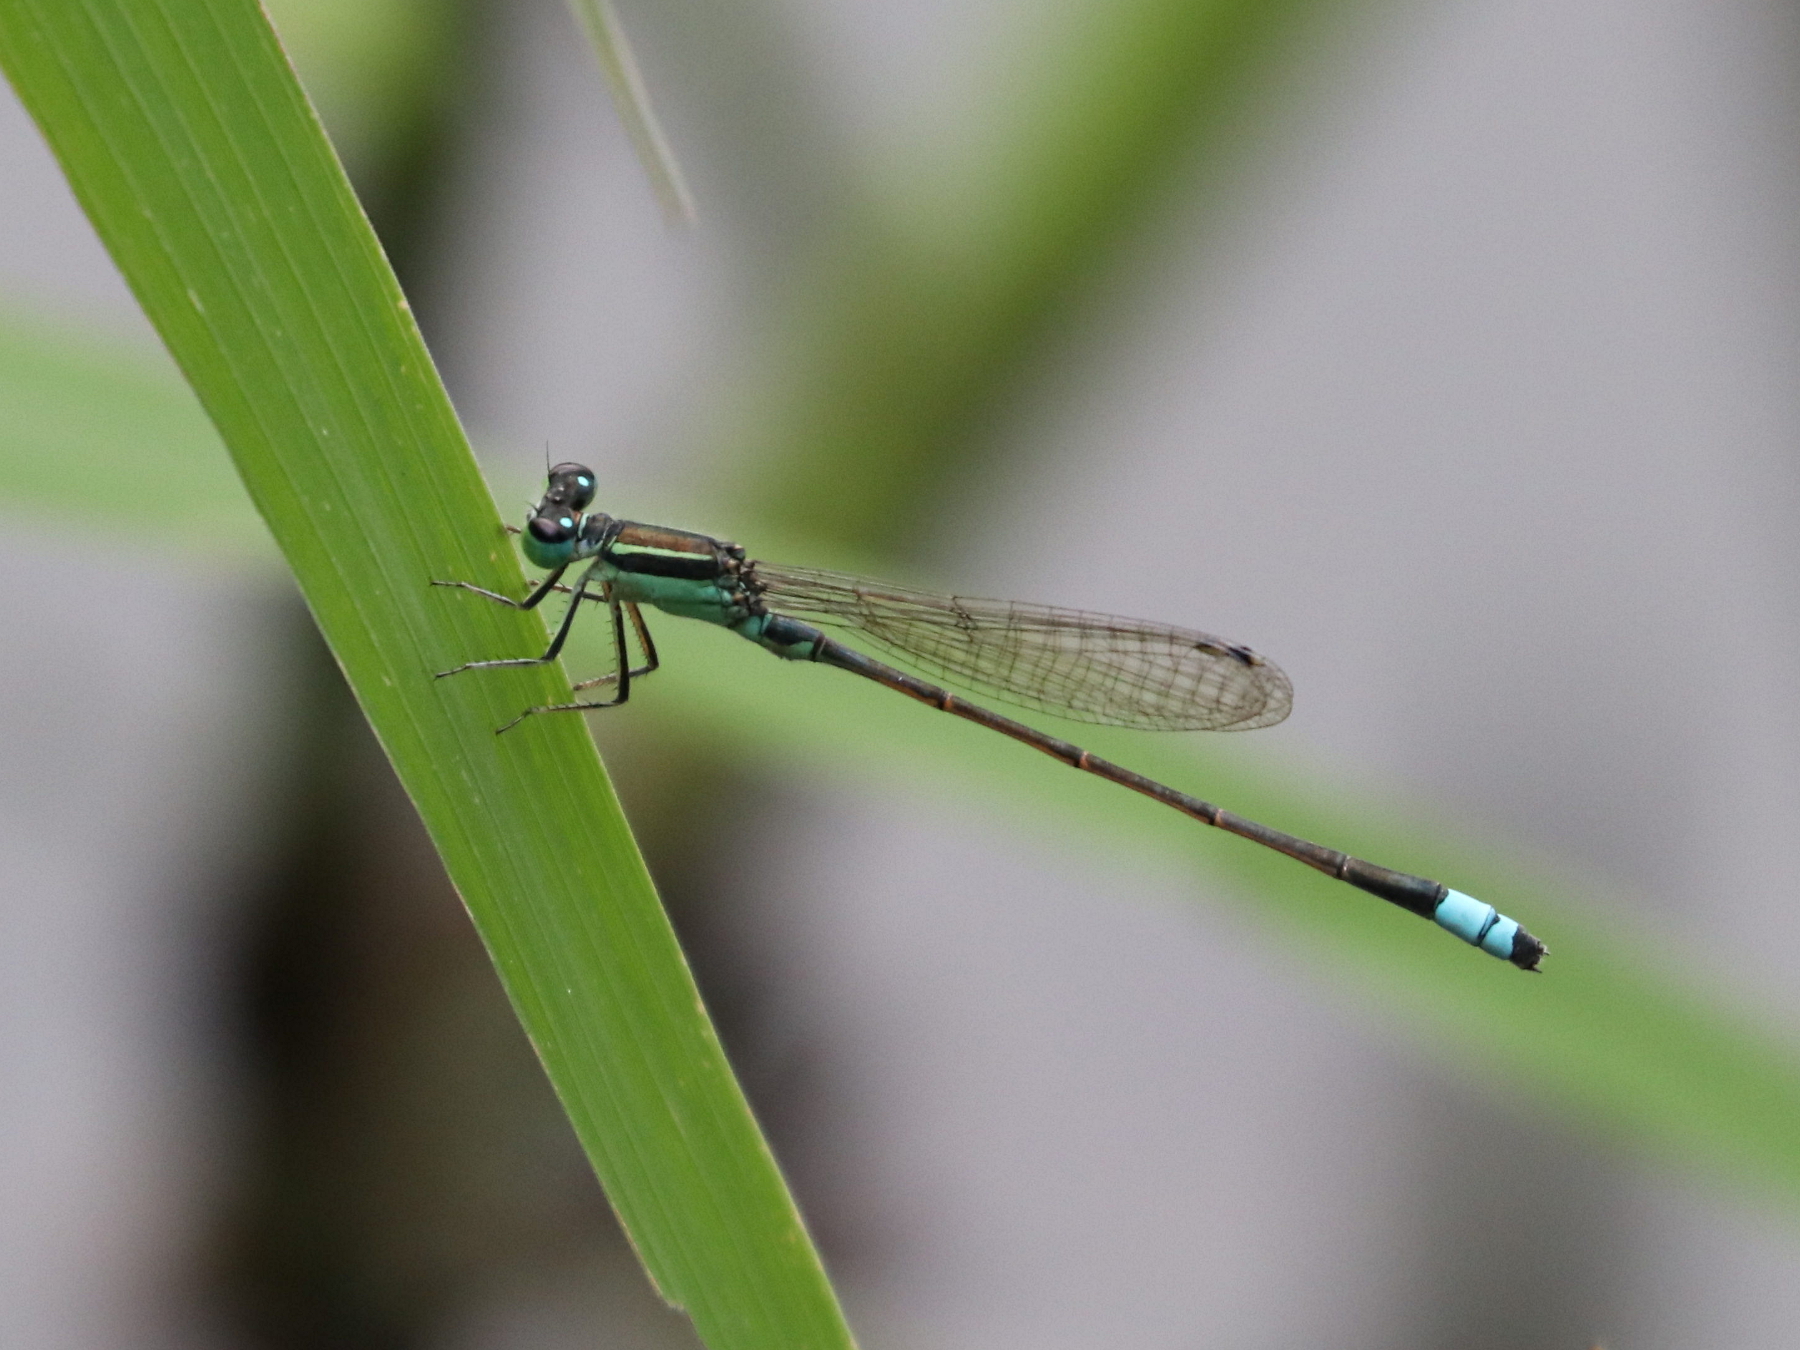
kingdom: Animalia
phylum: Arthropoda
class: Insecta
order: Odonata
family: Coenagrionidae
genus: Ischnura
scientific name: Ischnura senegalensis
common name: Tropical bluetail
